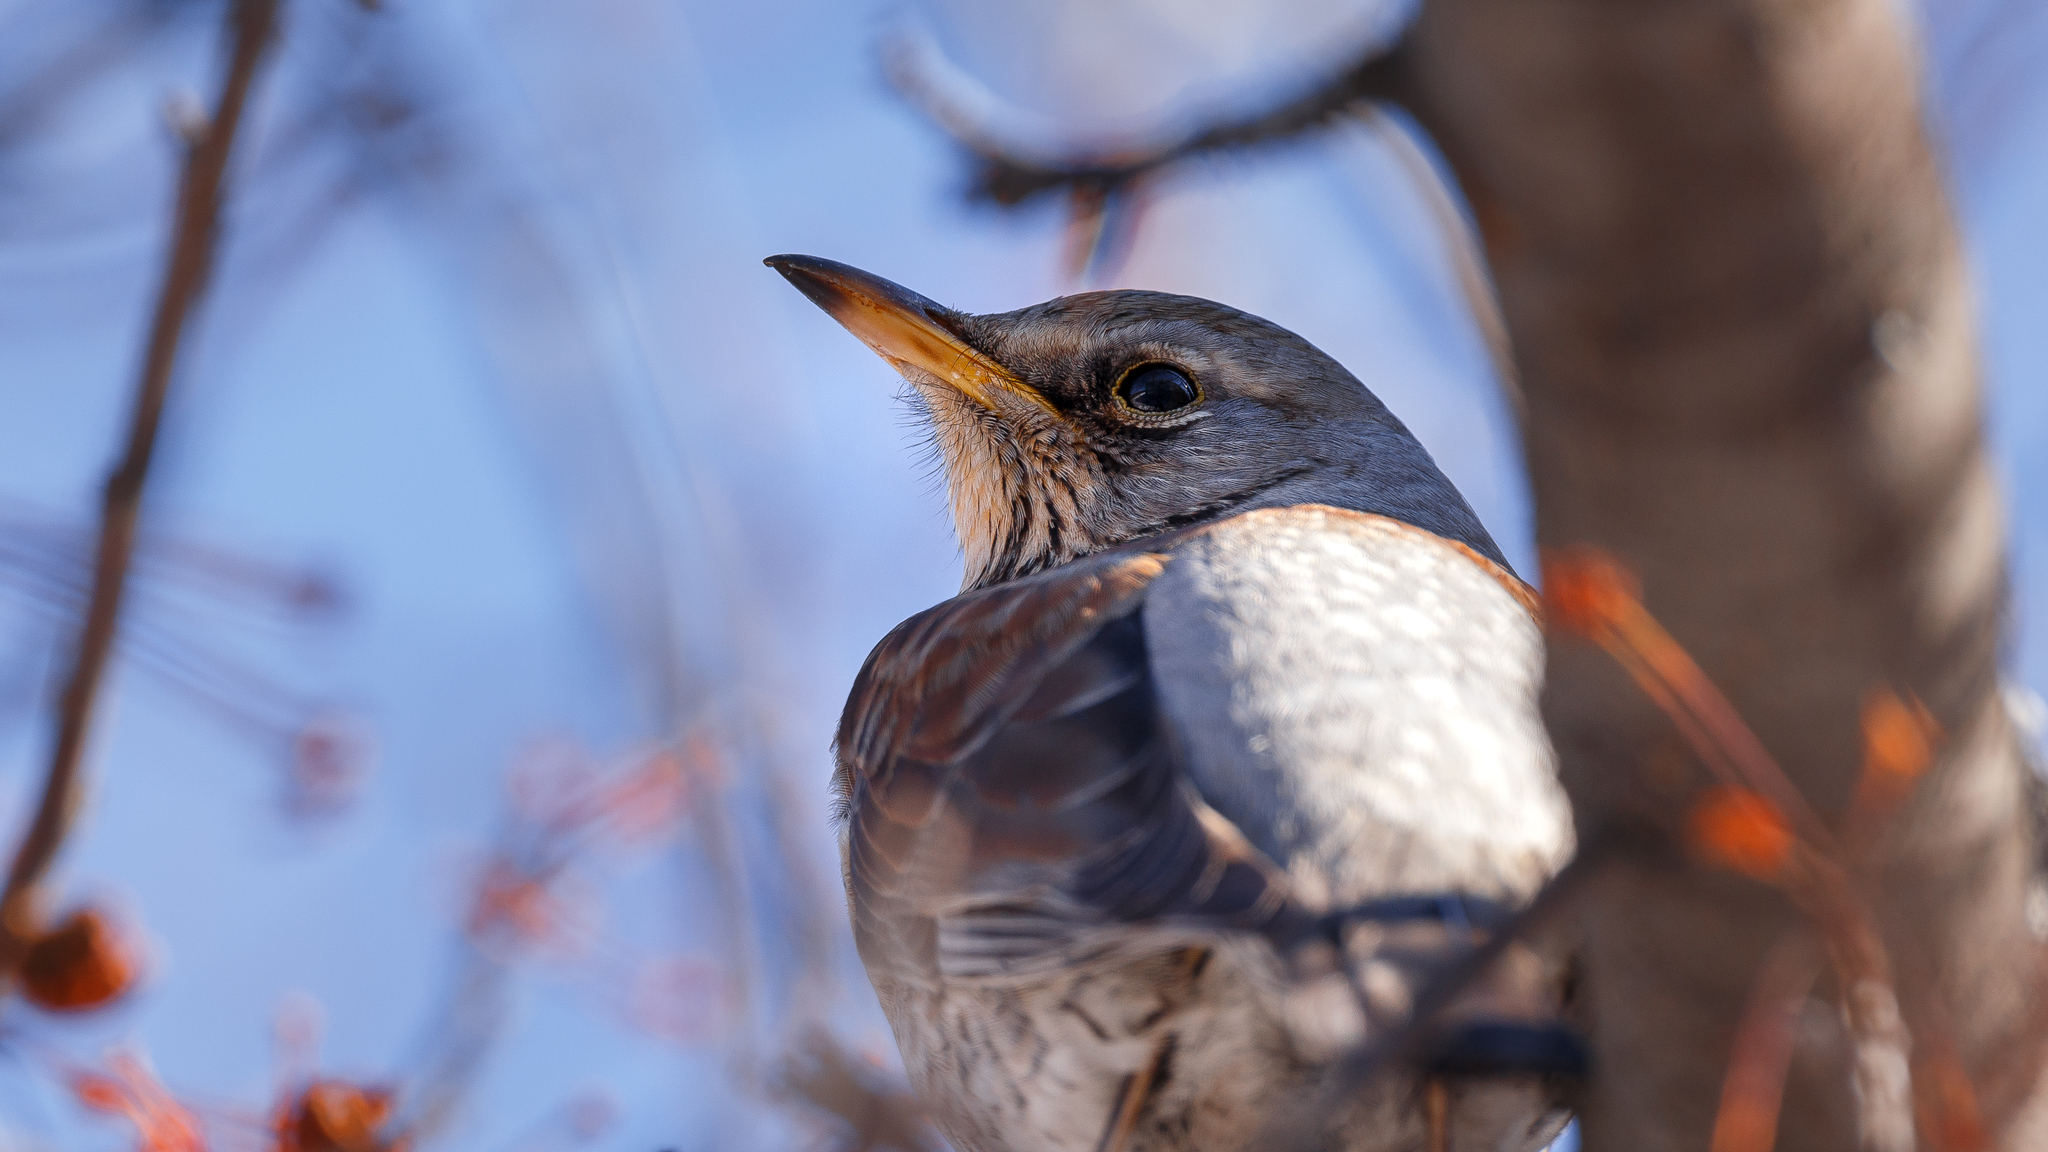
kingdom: Animalia
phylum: Chordata
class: Aves
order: Passeriformes
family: Turdidae
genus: Turdus
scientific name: Turdus pilaris
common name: Fieldfare
